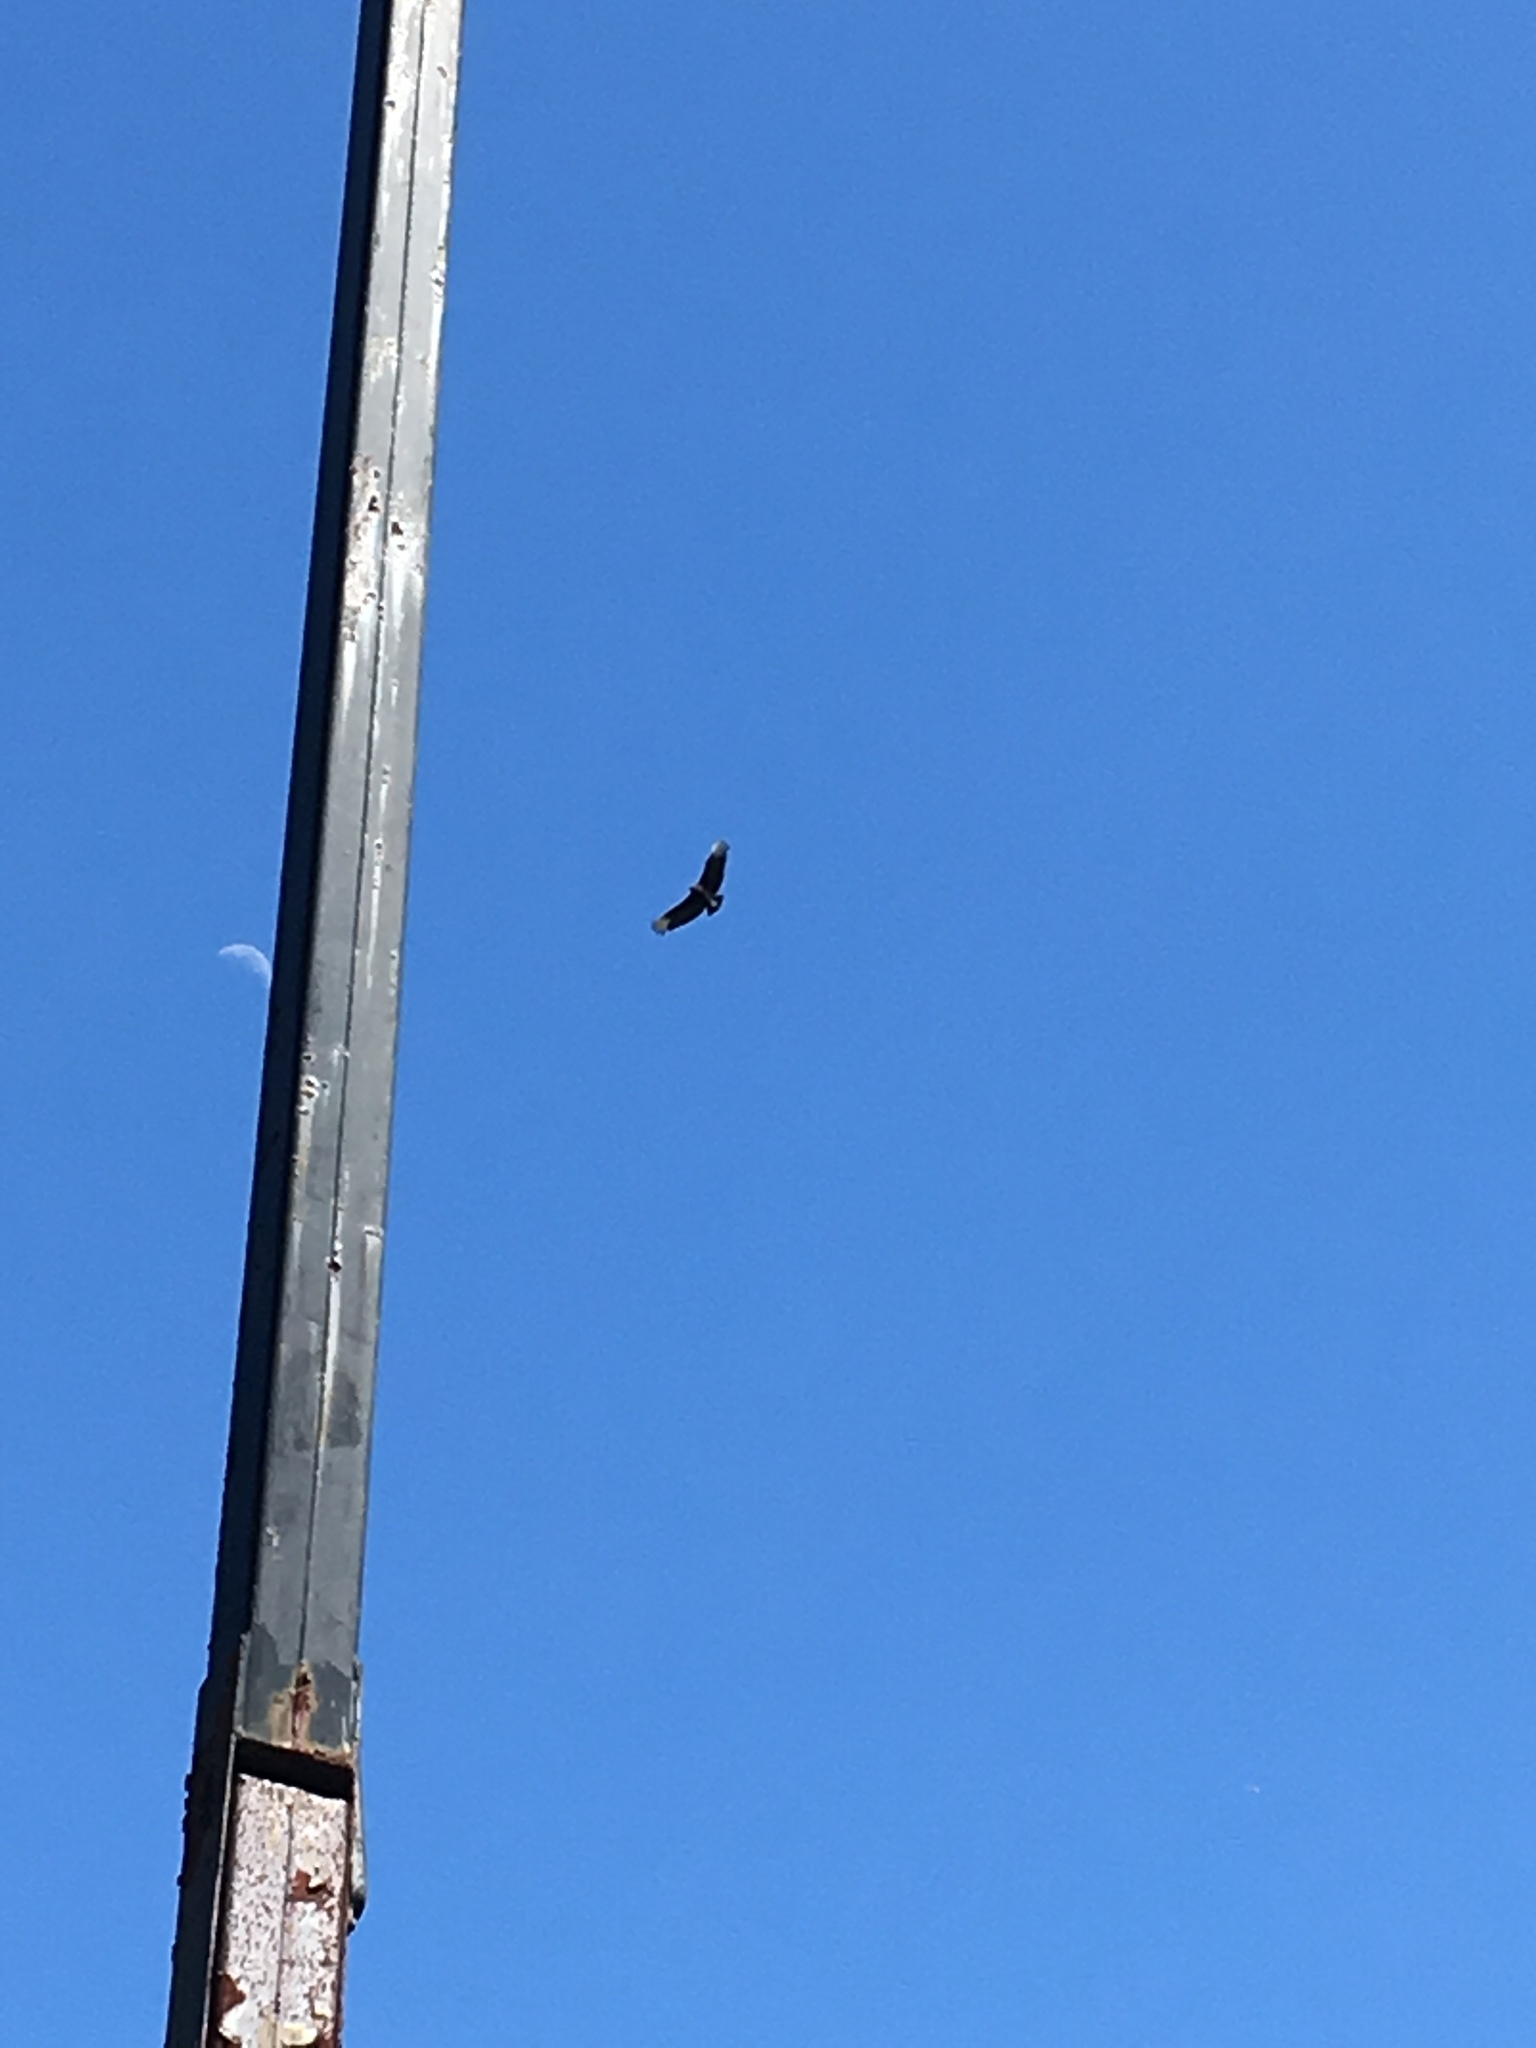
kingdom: Animalia
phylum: Chordata
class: Aves
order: Accipitriformes
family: Cathartidae
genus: Coragyps
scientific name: Coragyps atratus
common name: Black vulture
